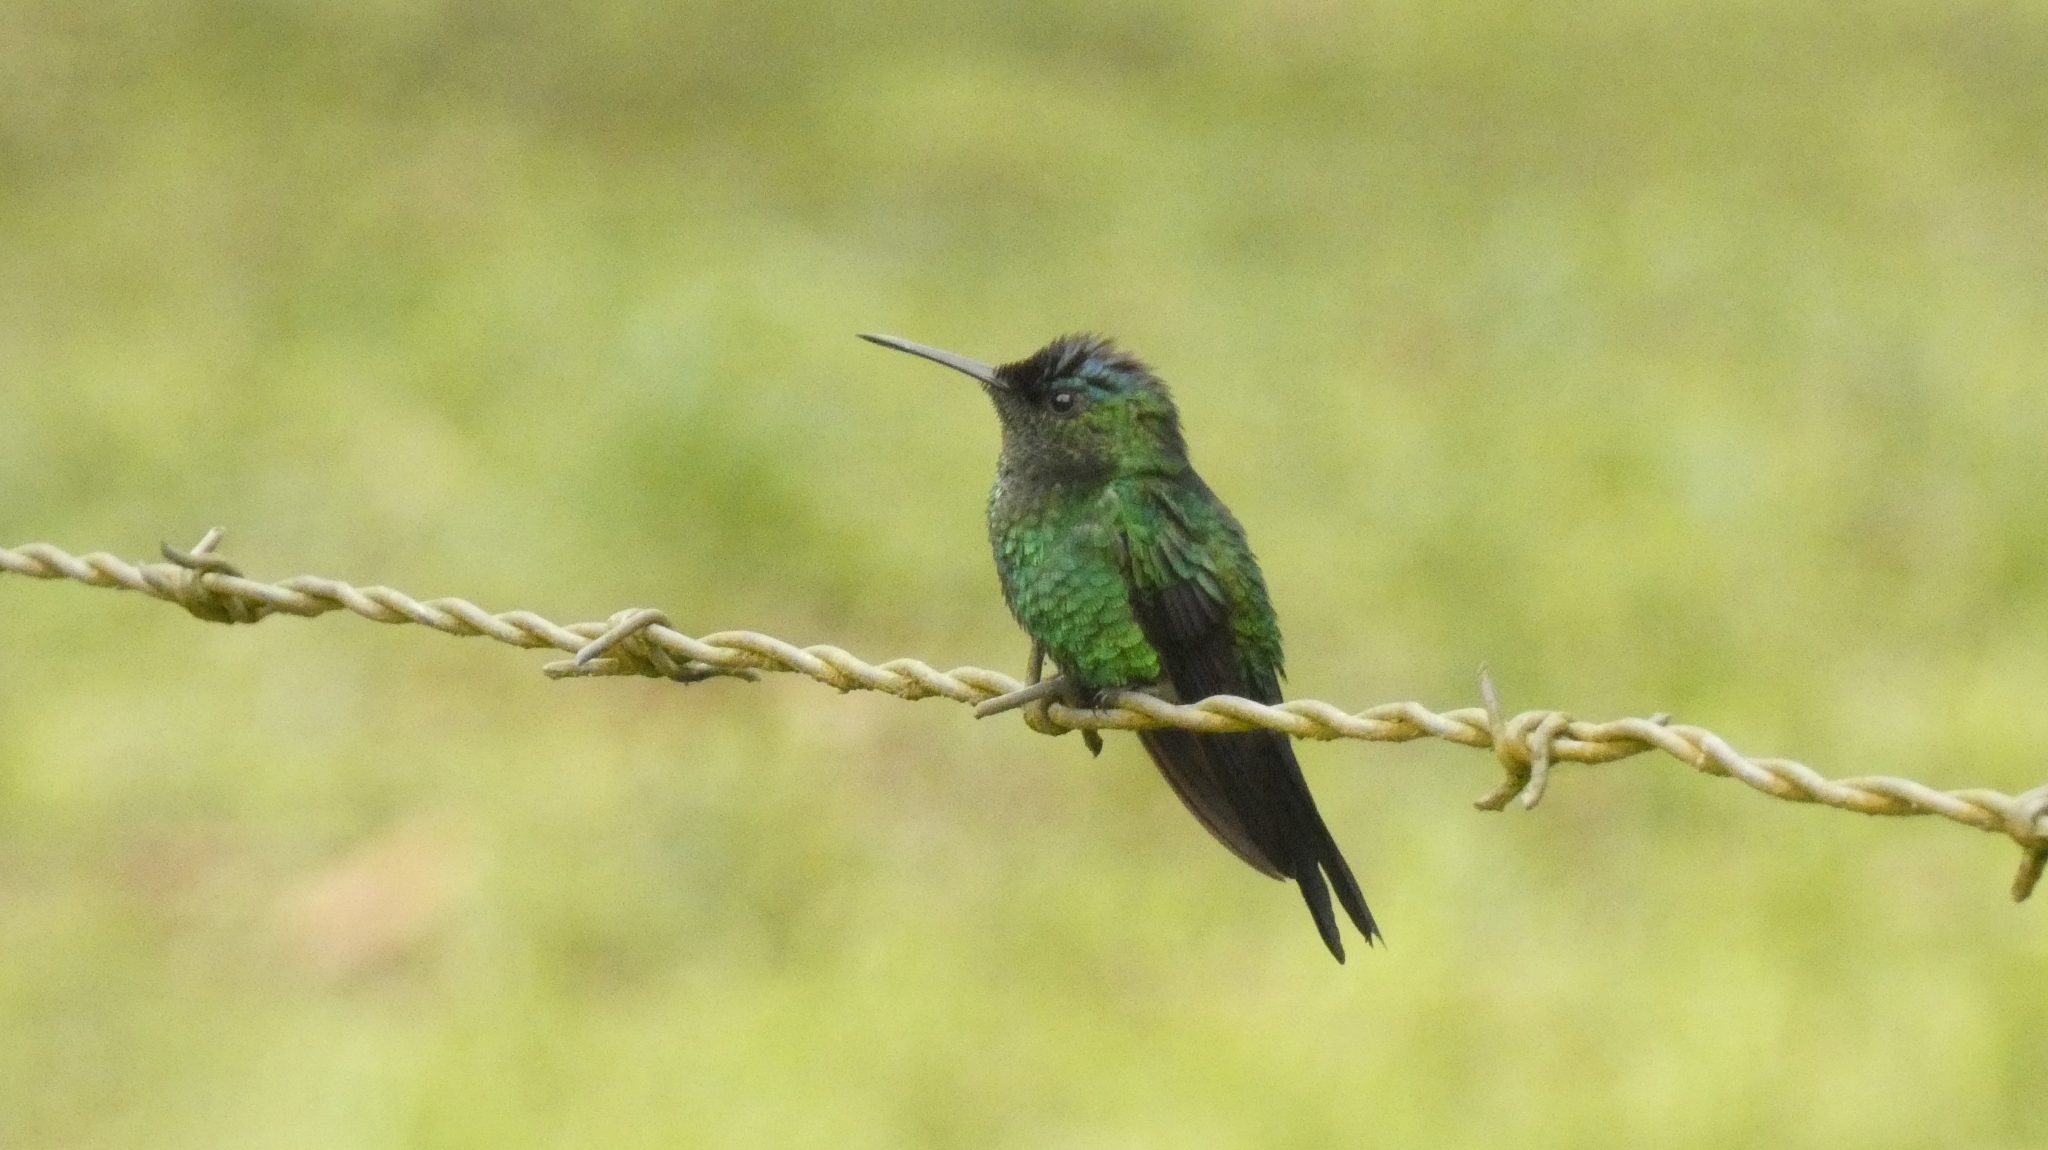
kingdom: Animalia
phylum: Chordata
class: Aves
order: Apodiformes
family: Trochilidae
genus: Thalurania
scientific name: Thalurania glaucopis
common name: Violet-capped woodnymph
